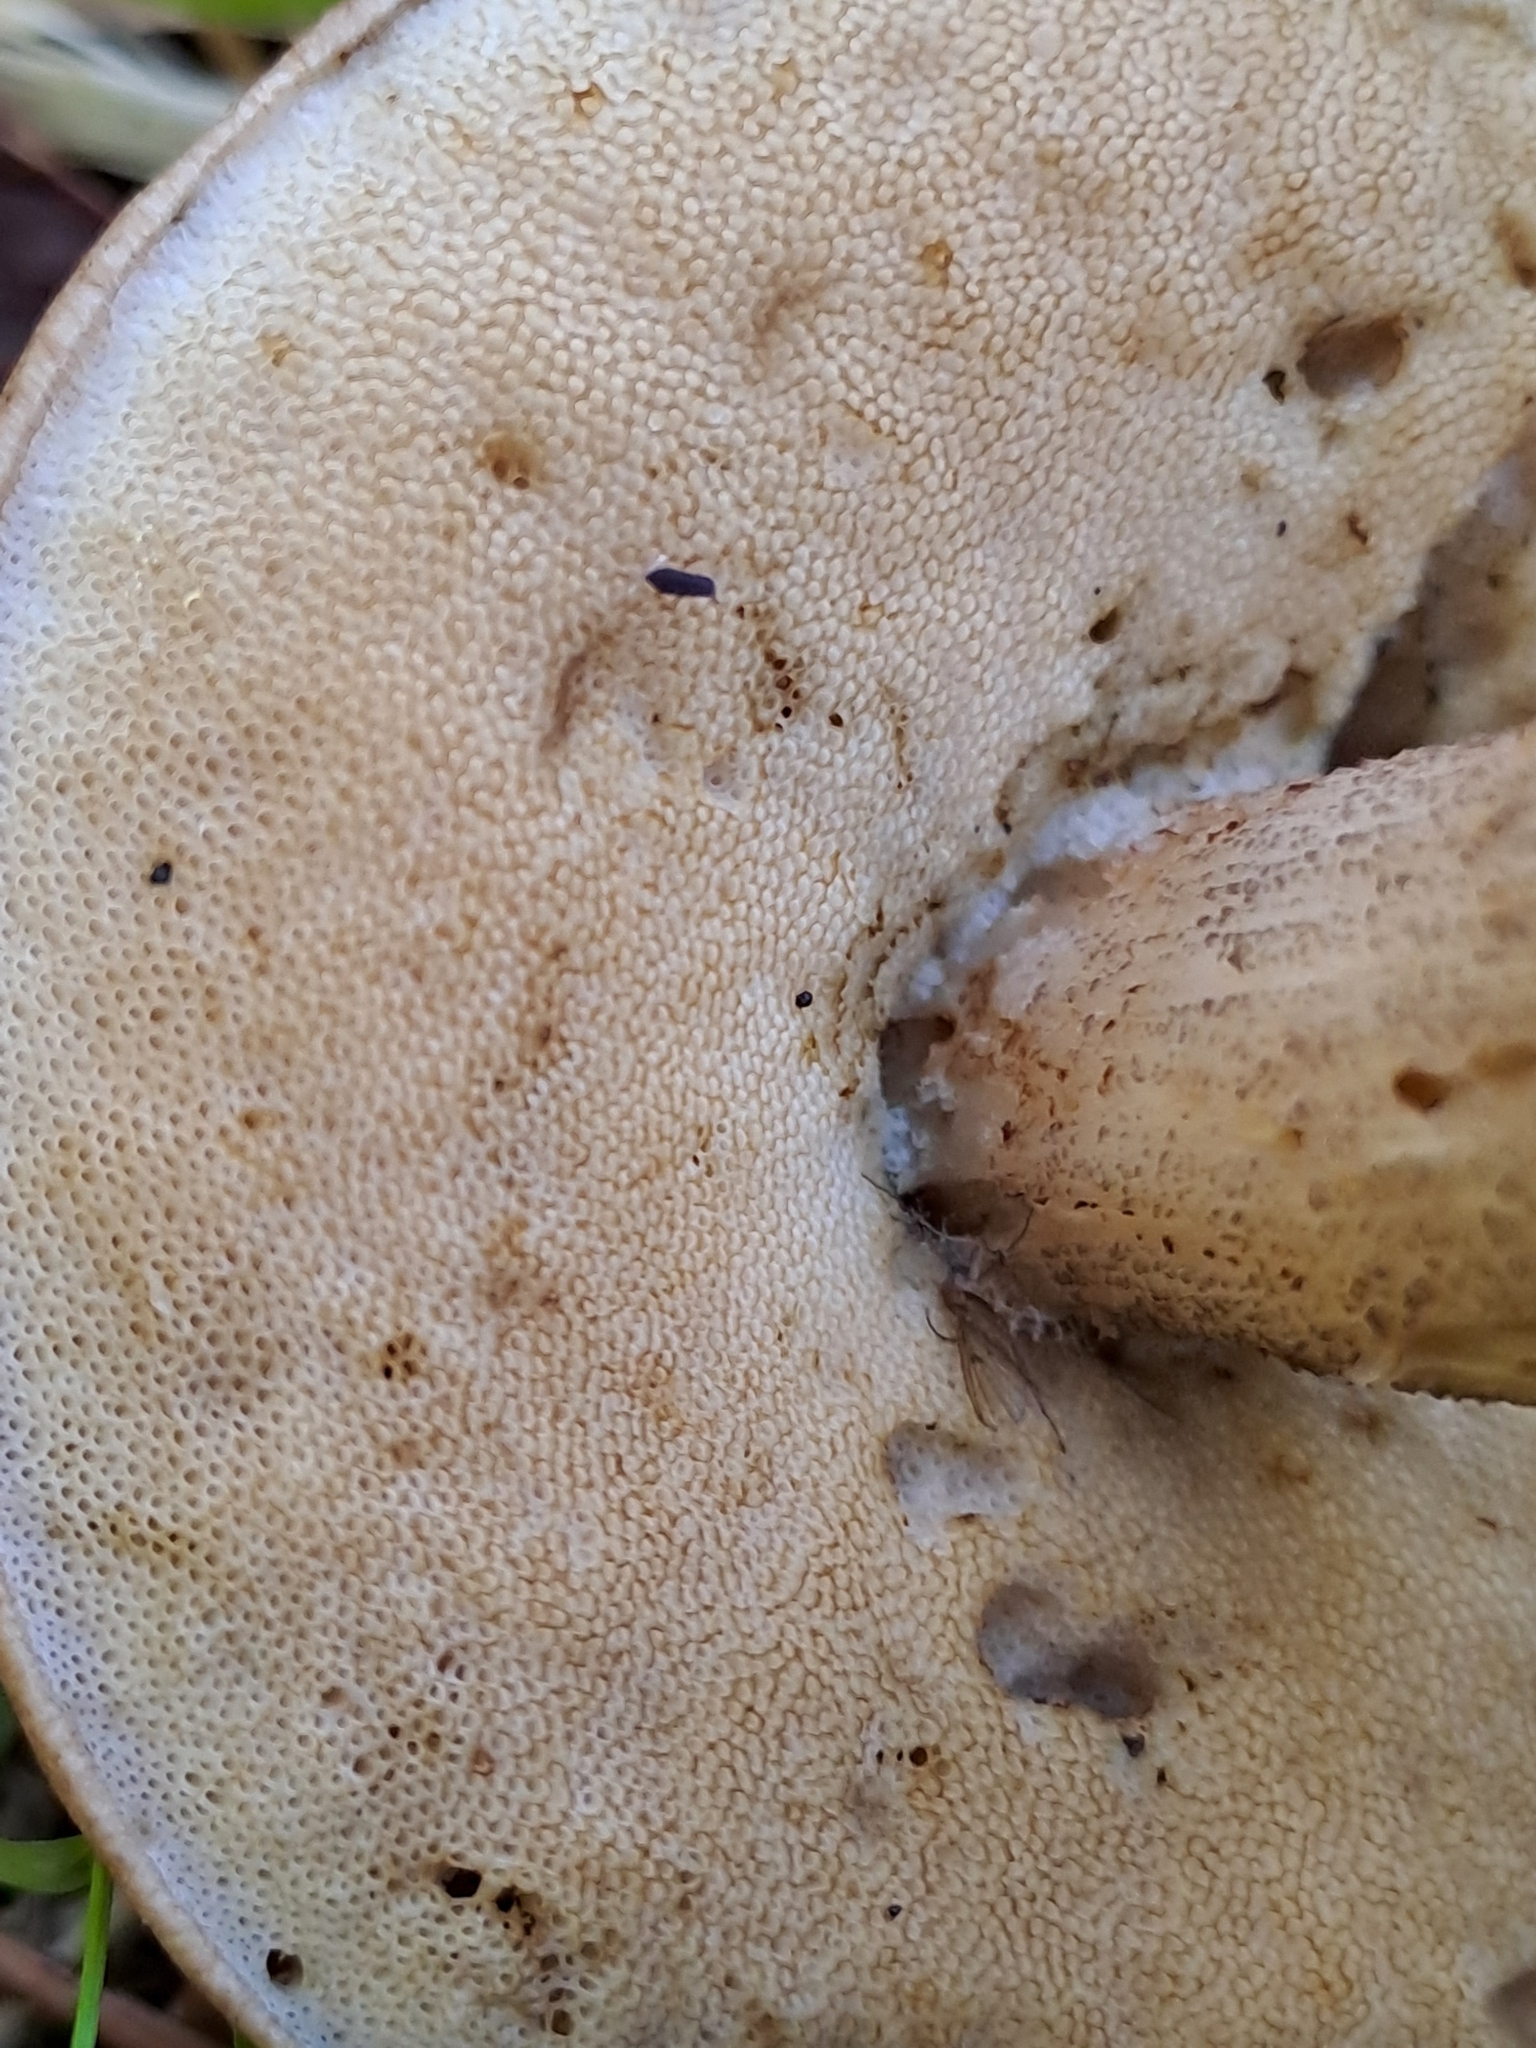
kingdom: Fungi
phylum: Basidiomycota
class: Agaricomycetes
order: Boletales
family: Boletaceae
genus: Leccinum
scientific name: Leccinum scabrum
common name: Blushing bolete
